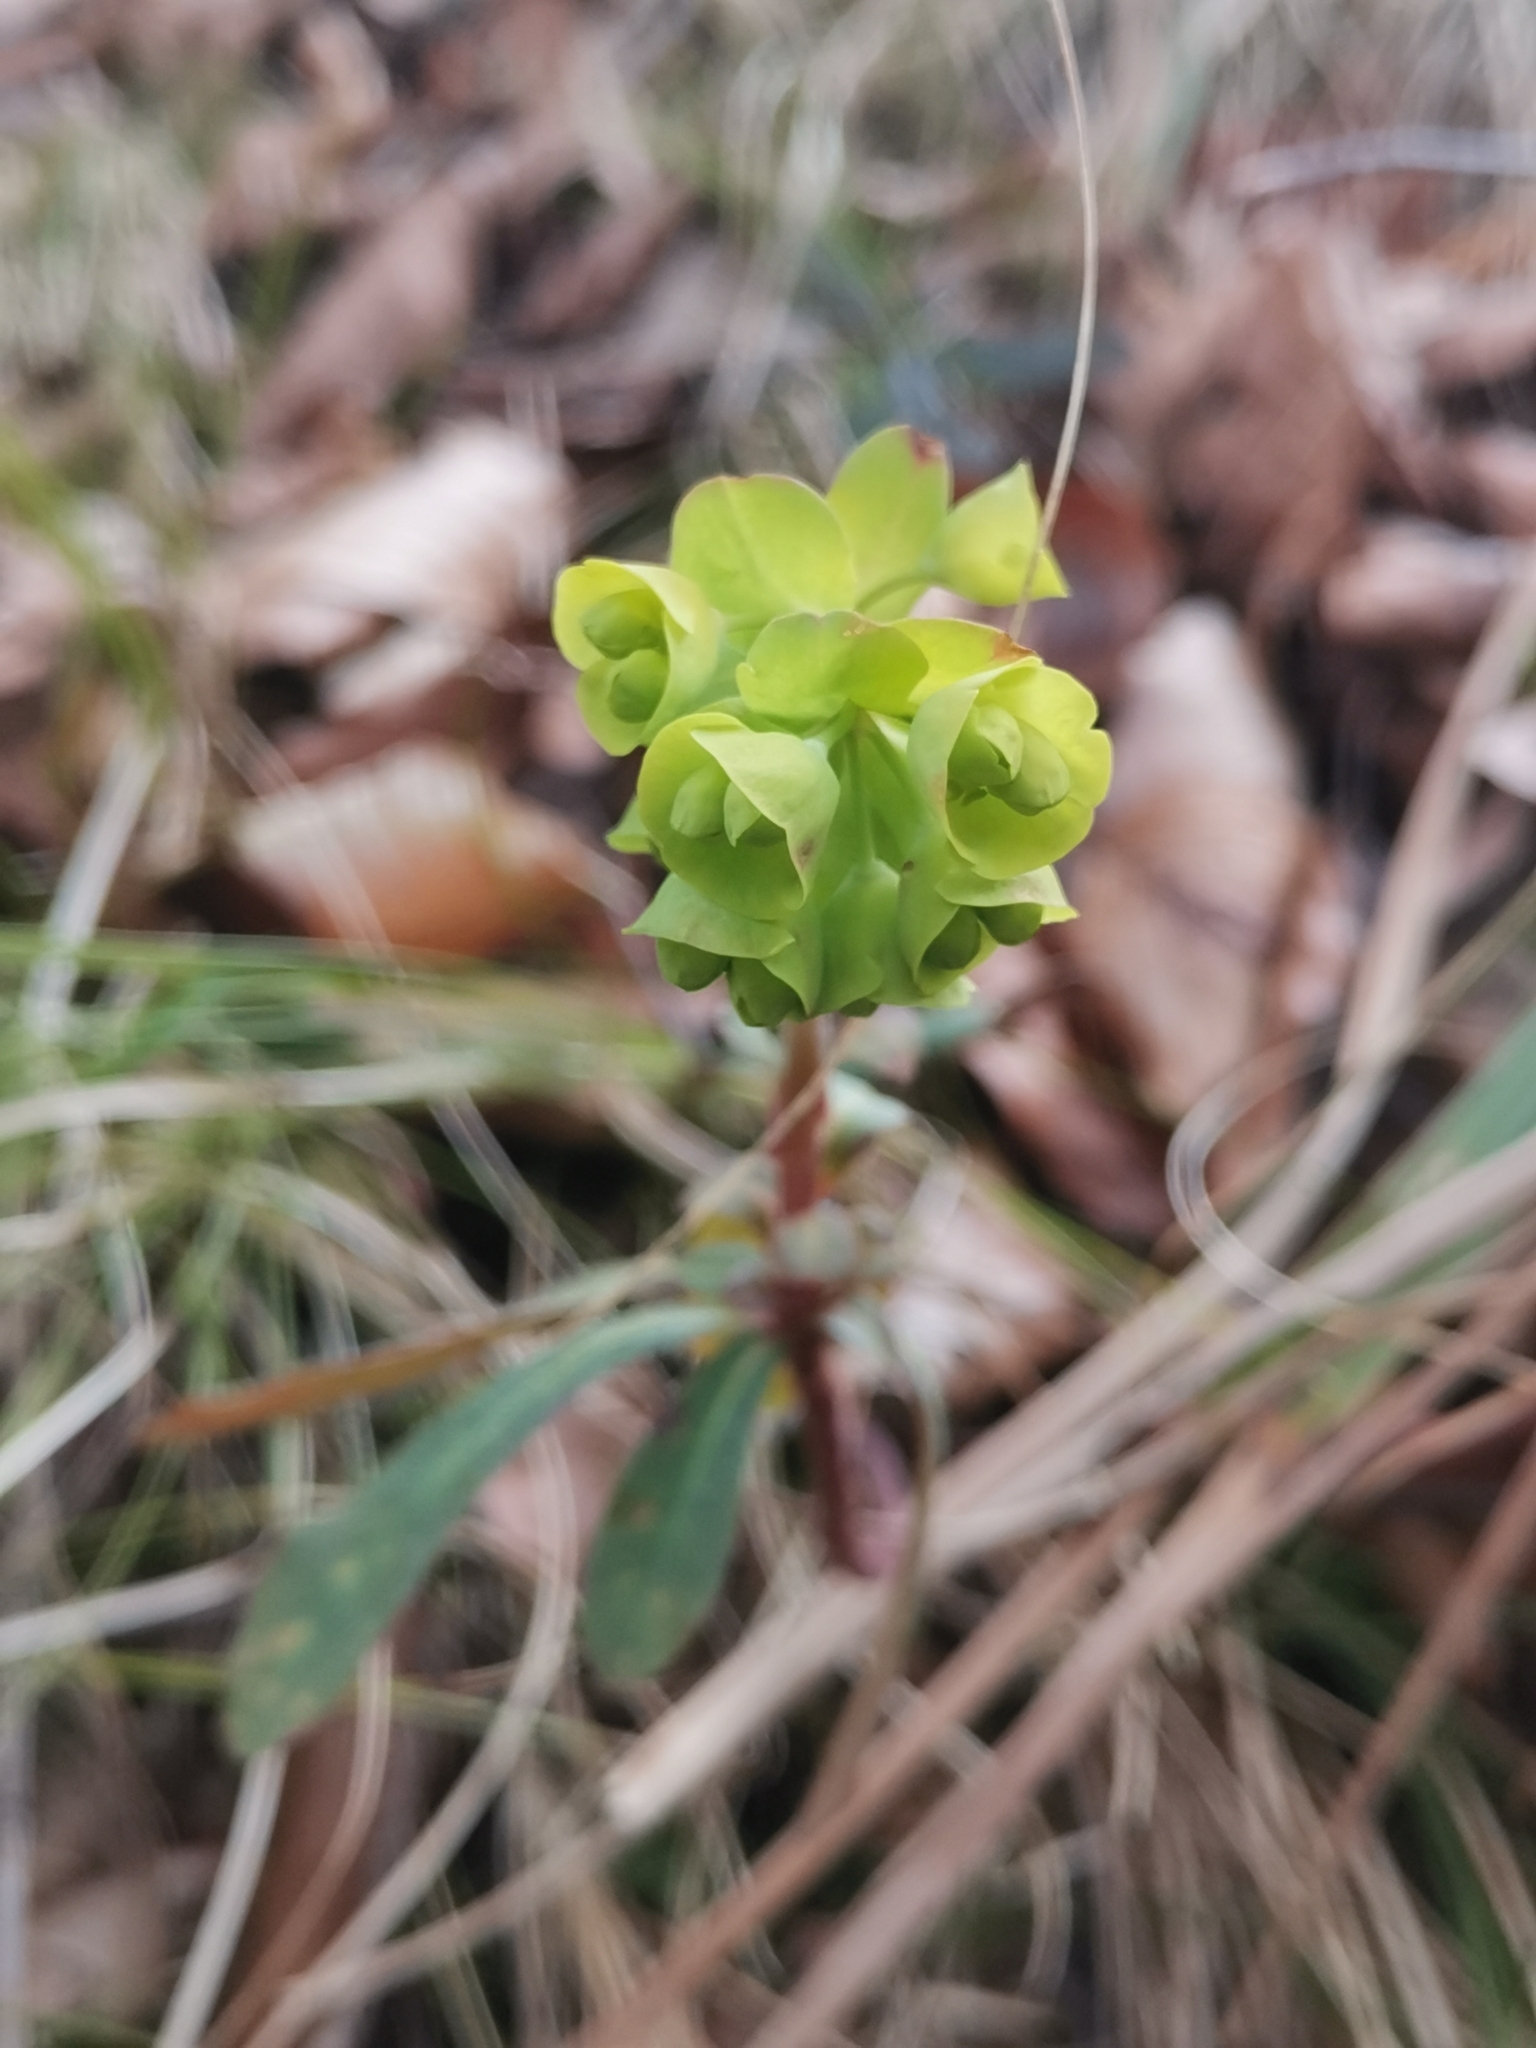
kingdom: Plantae
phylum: Tracheophyta
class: Magnoliopsida
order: Malpighiales
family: Euphorbiaceae
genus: Euphorbia
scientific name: Euphorbia amygdaloides
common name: Wood spurge
